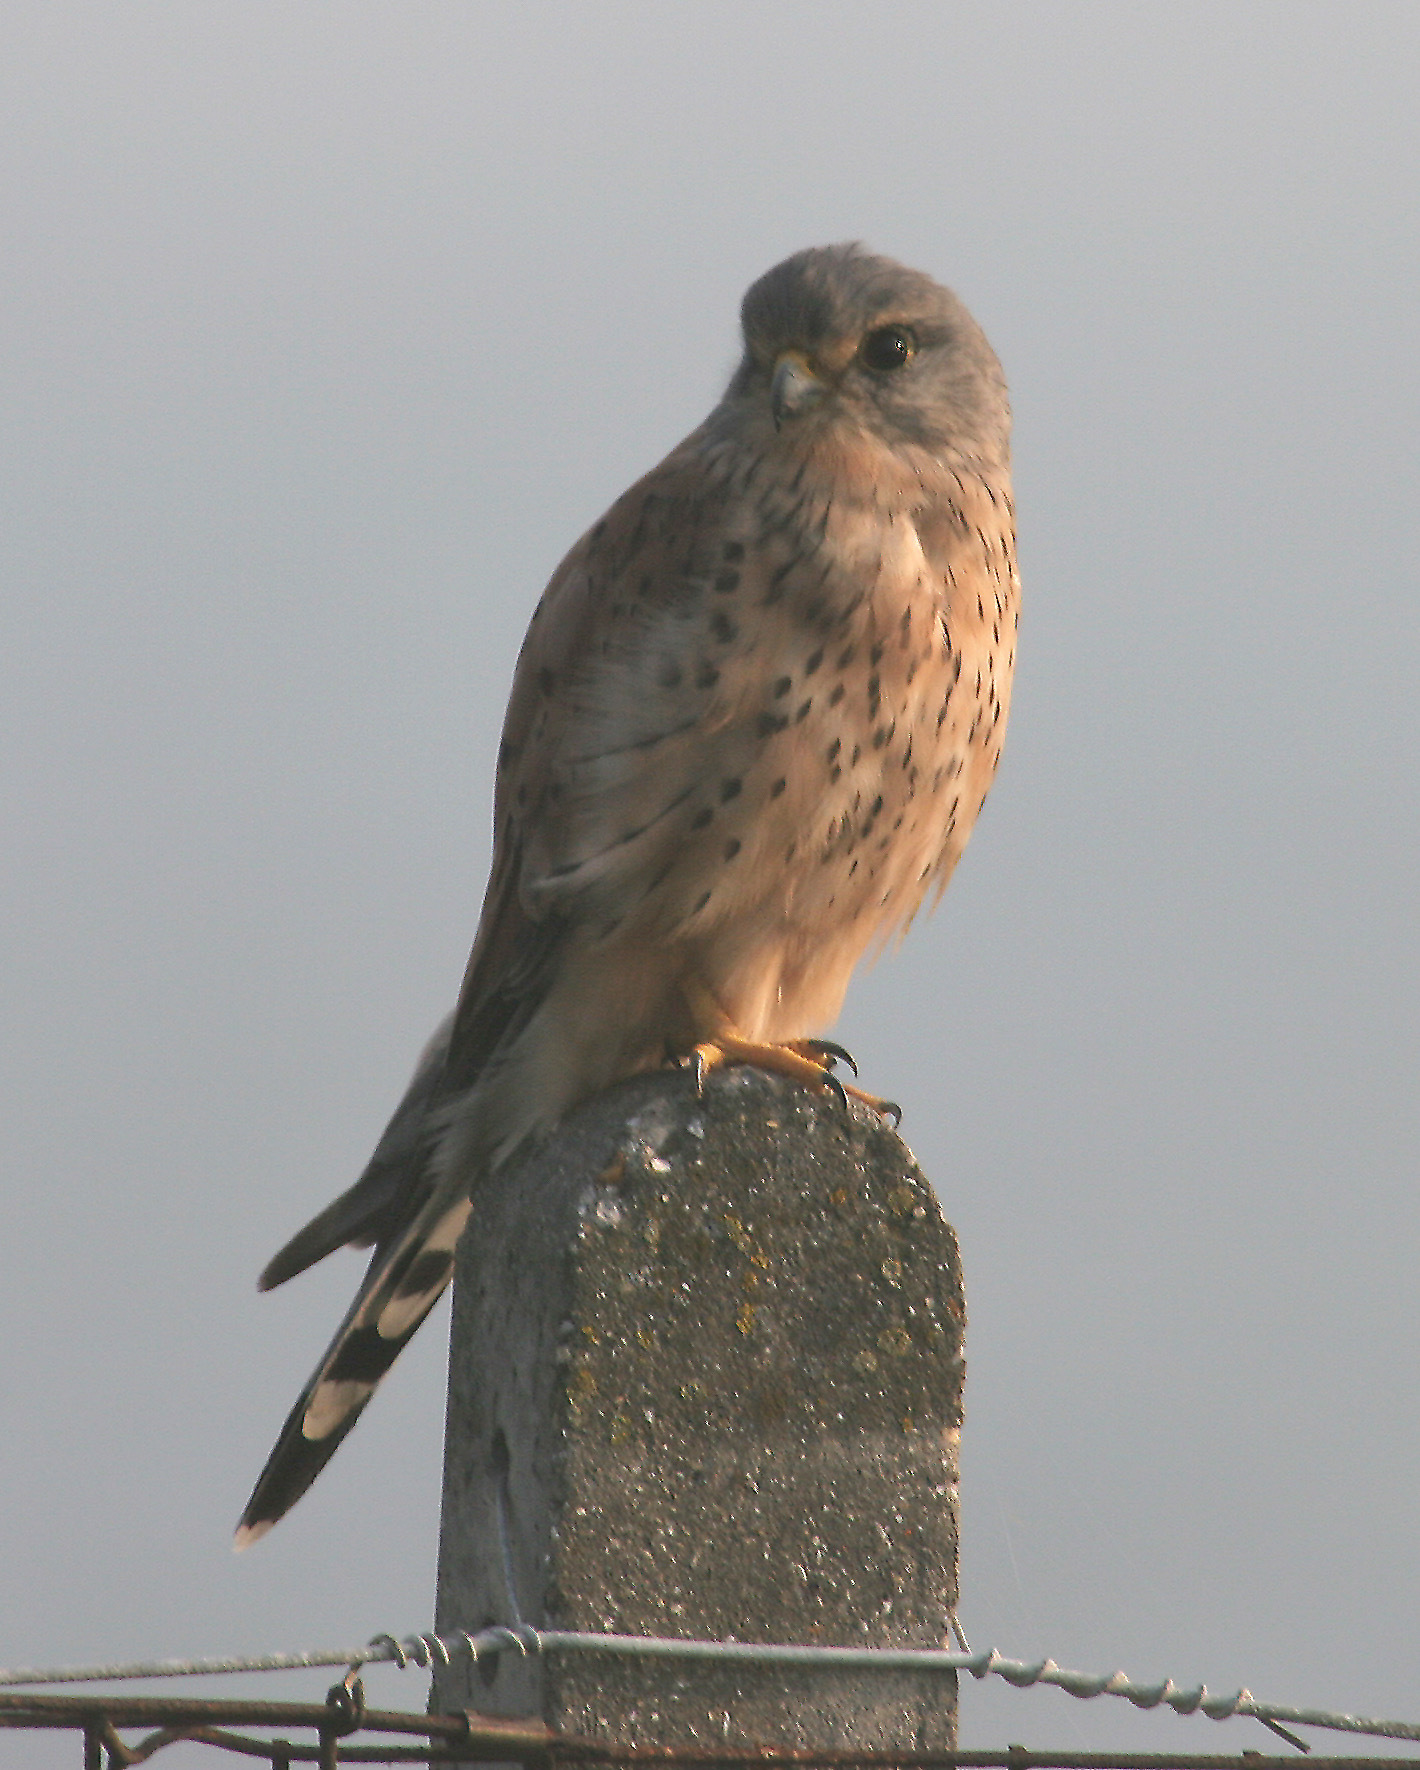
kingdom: Animalia
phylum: Chordata
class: Aves
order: Falconiformes
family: Falconidae
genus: Falco
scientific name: Falco tinnunculus
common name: Common kestrel
